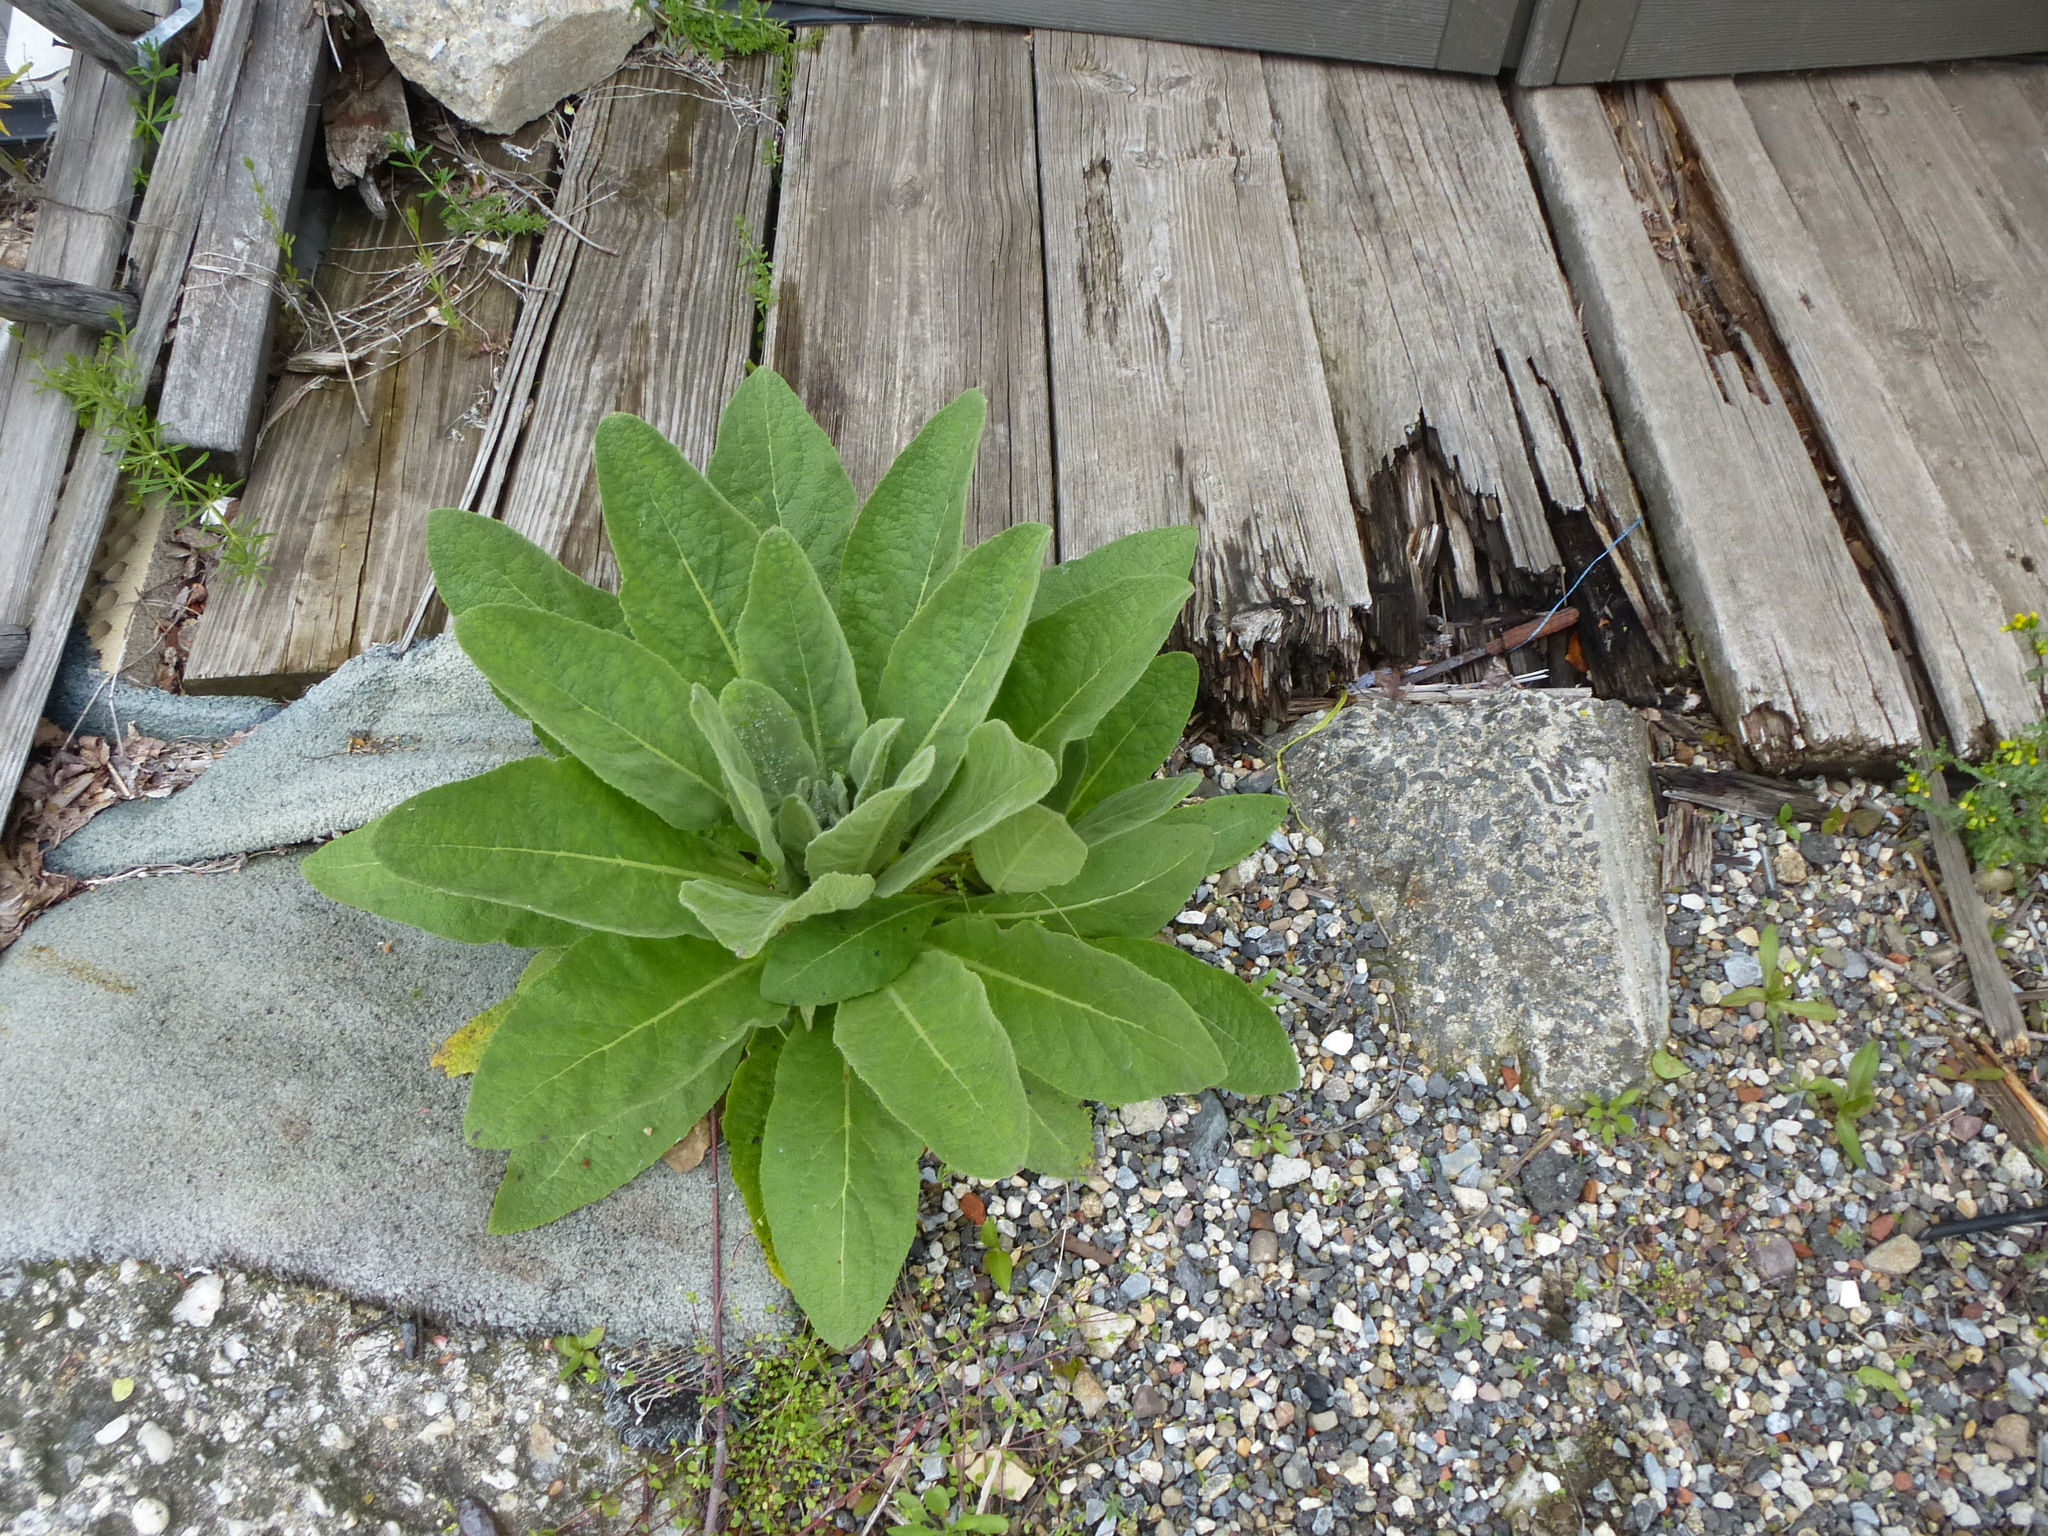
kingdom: Plantae
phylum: Tracheophyta
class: Magnoliopsida
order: Lamiales
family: Scrophulariaceae
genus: Verbascum
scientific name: Verbascum thapsus
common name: Common mullein
